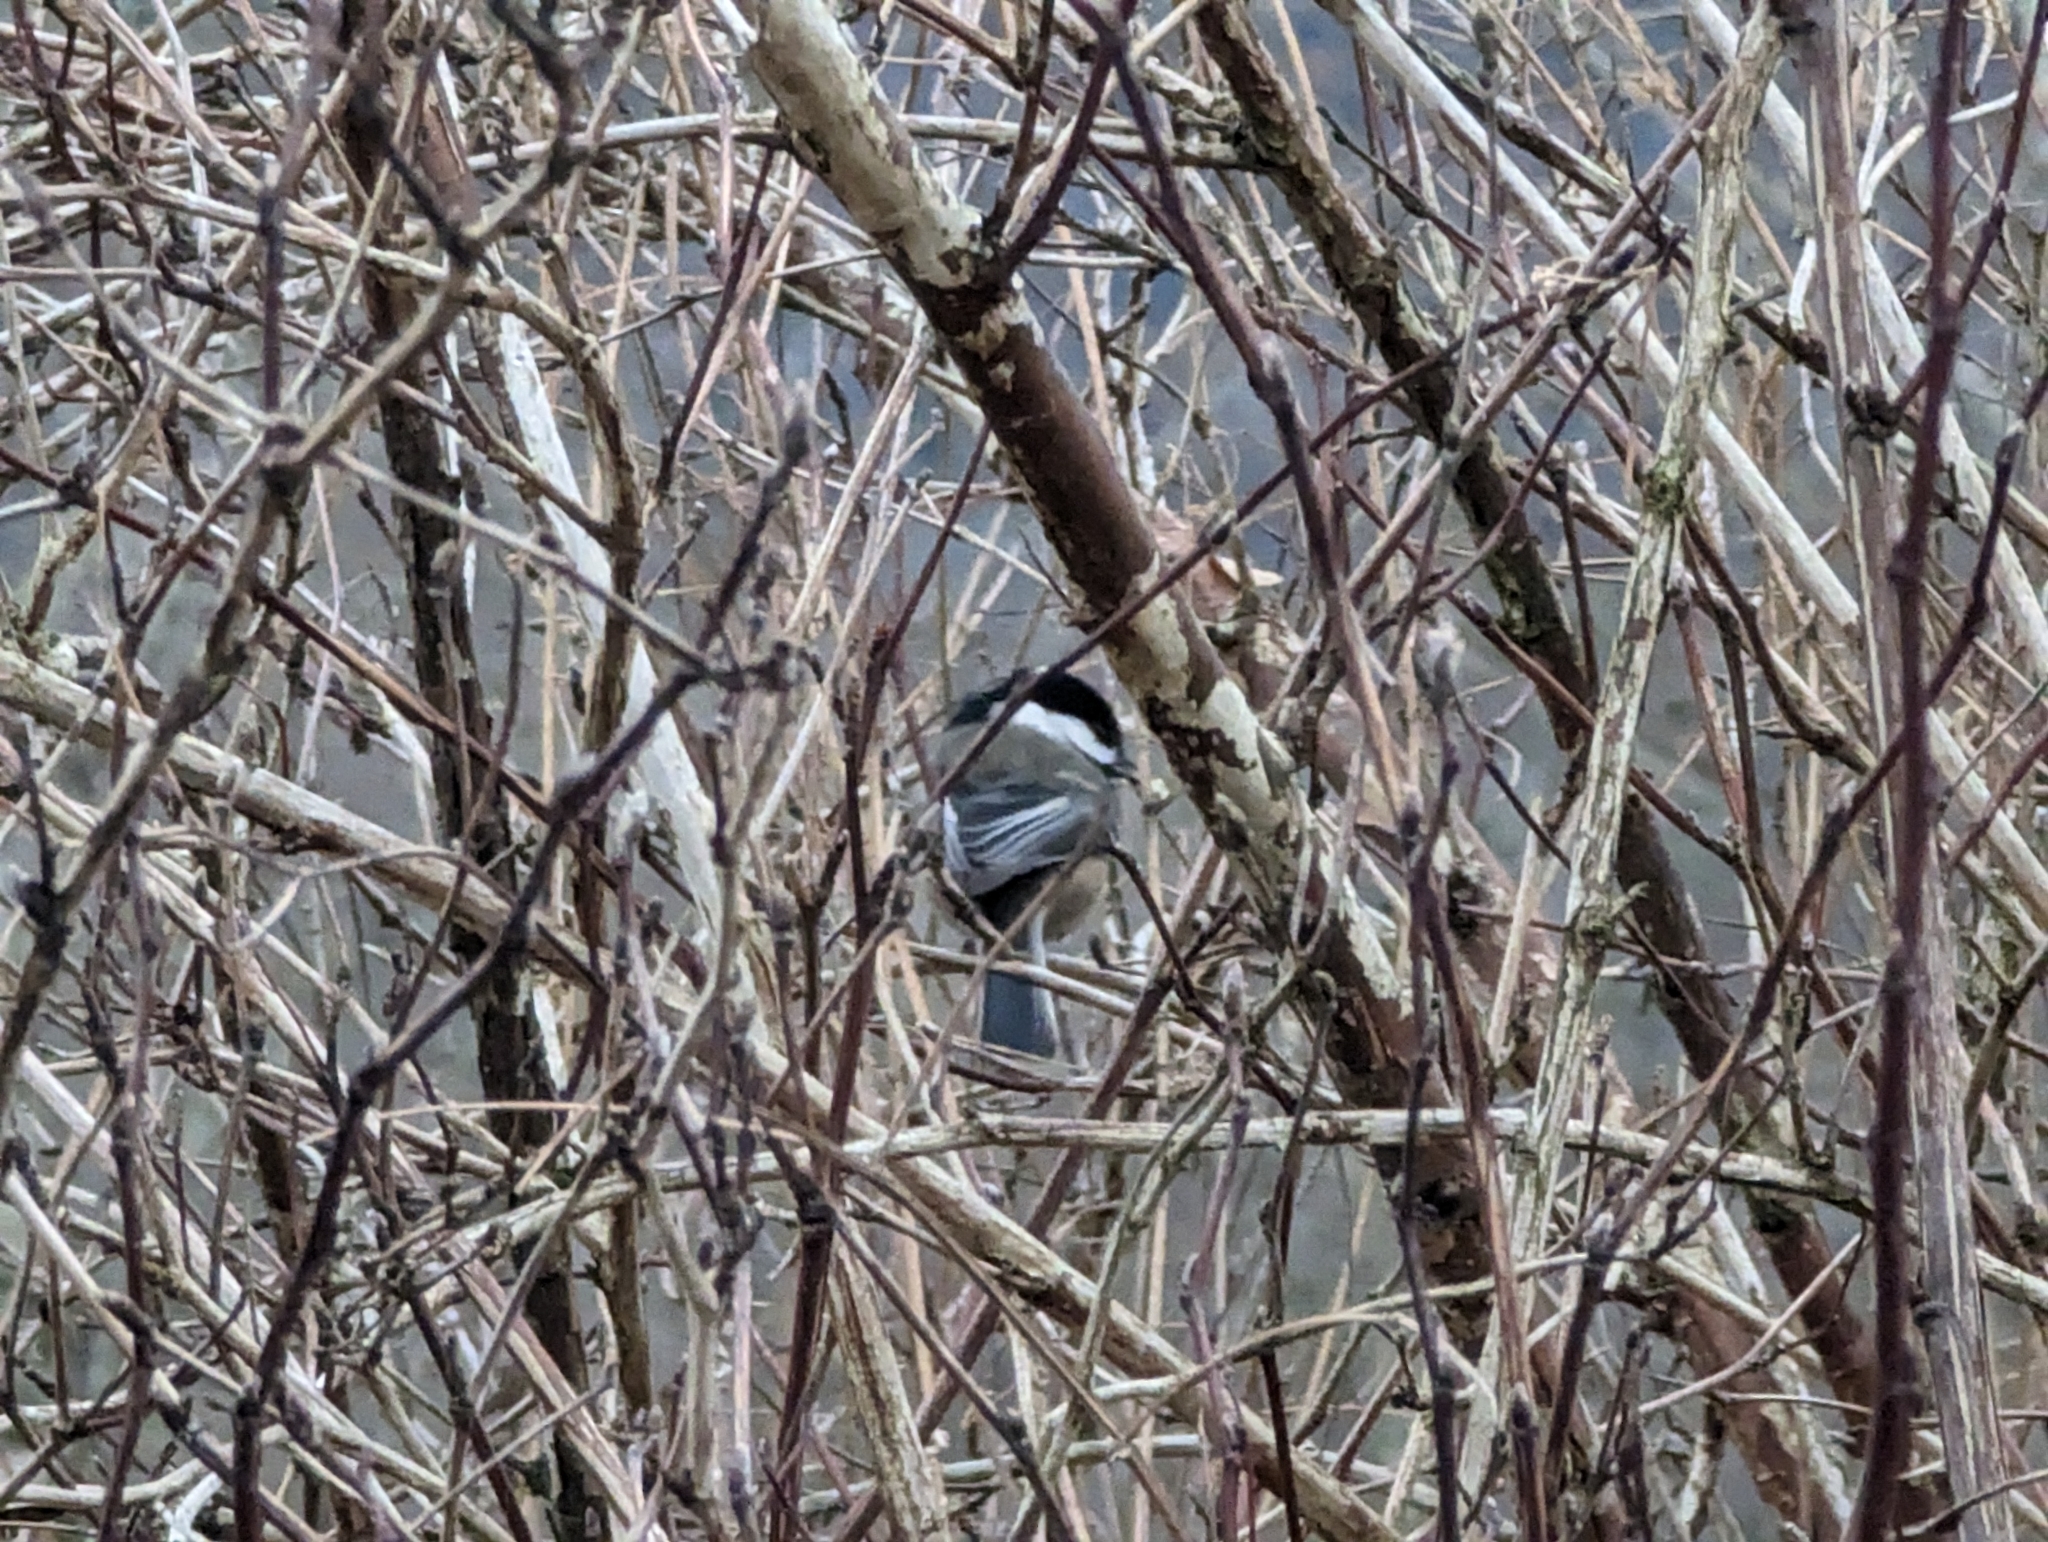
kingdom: Animalia
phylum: Chordata
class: Aves
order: Passeriformes
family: Paridae
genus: Poecile
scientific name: Poecile atricapillus
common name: Black-capped chickadee
